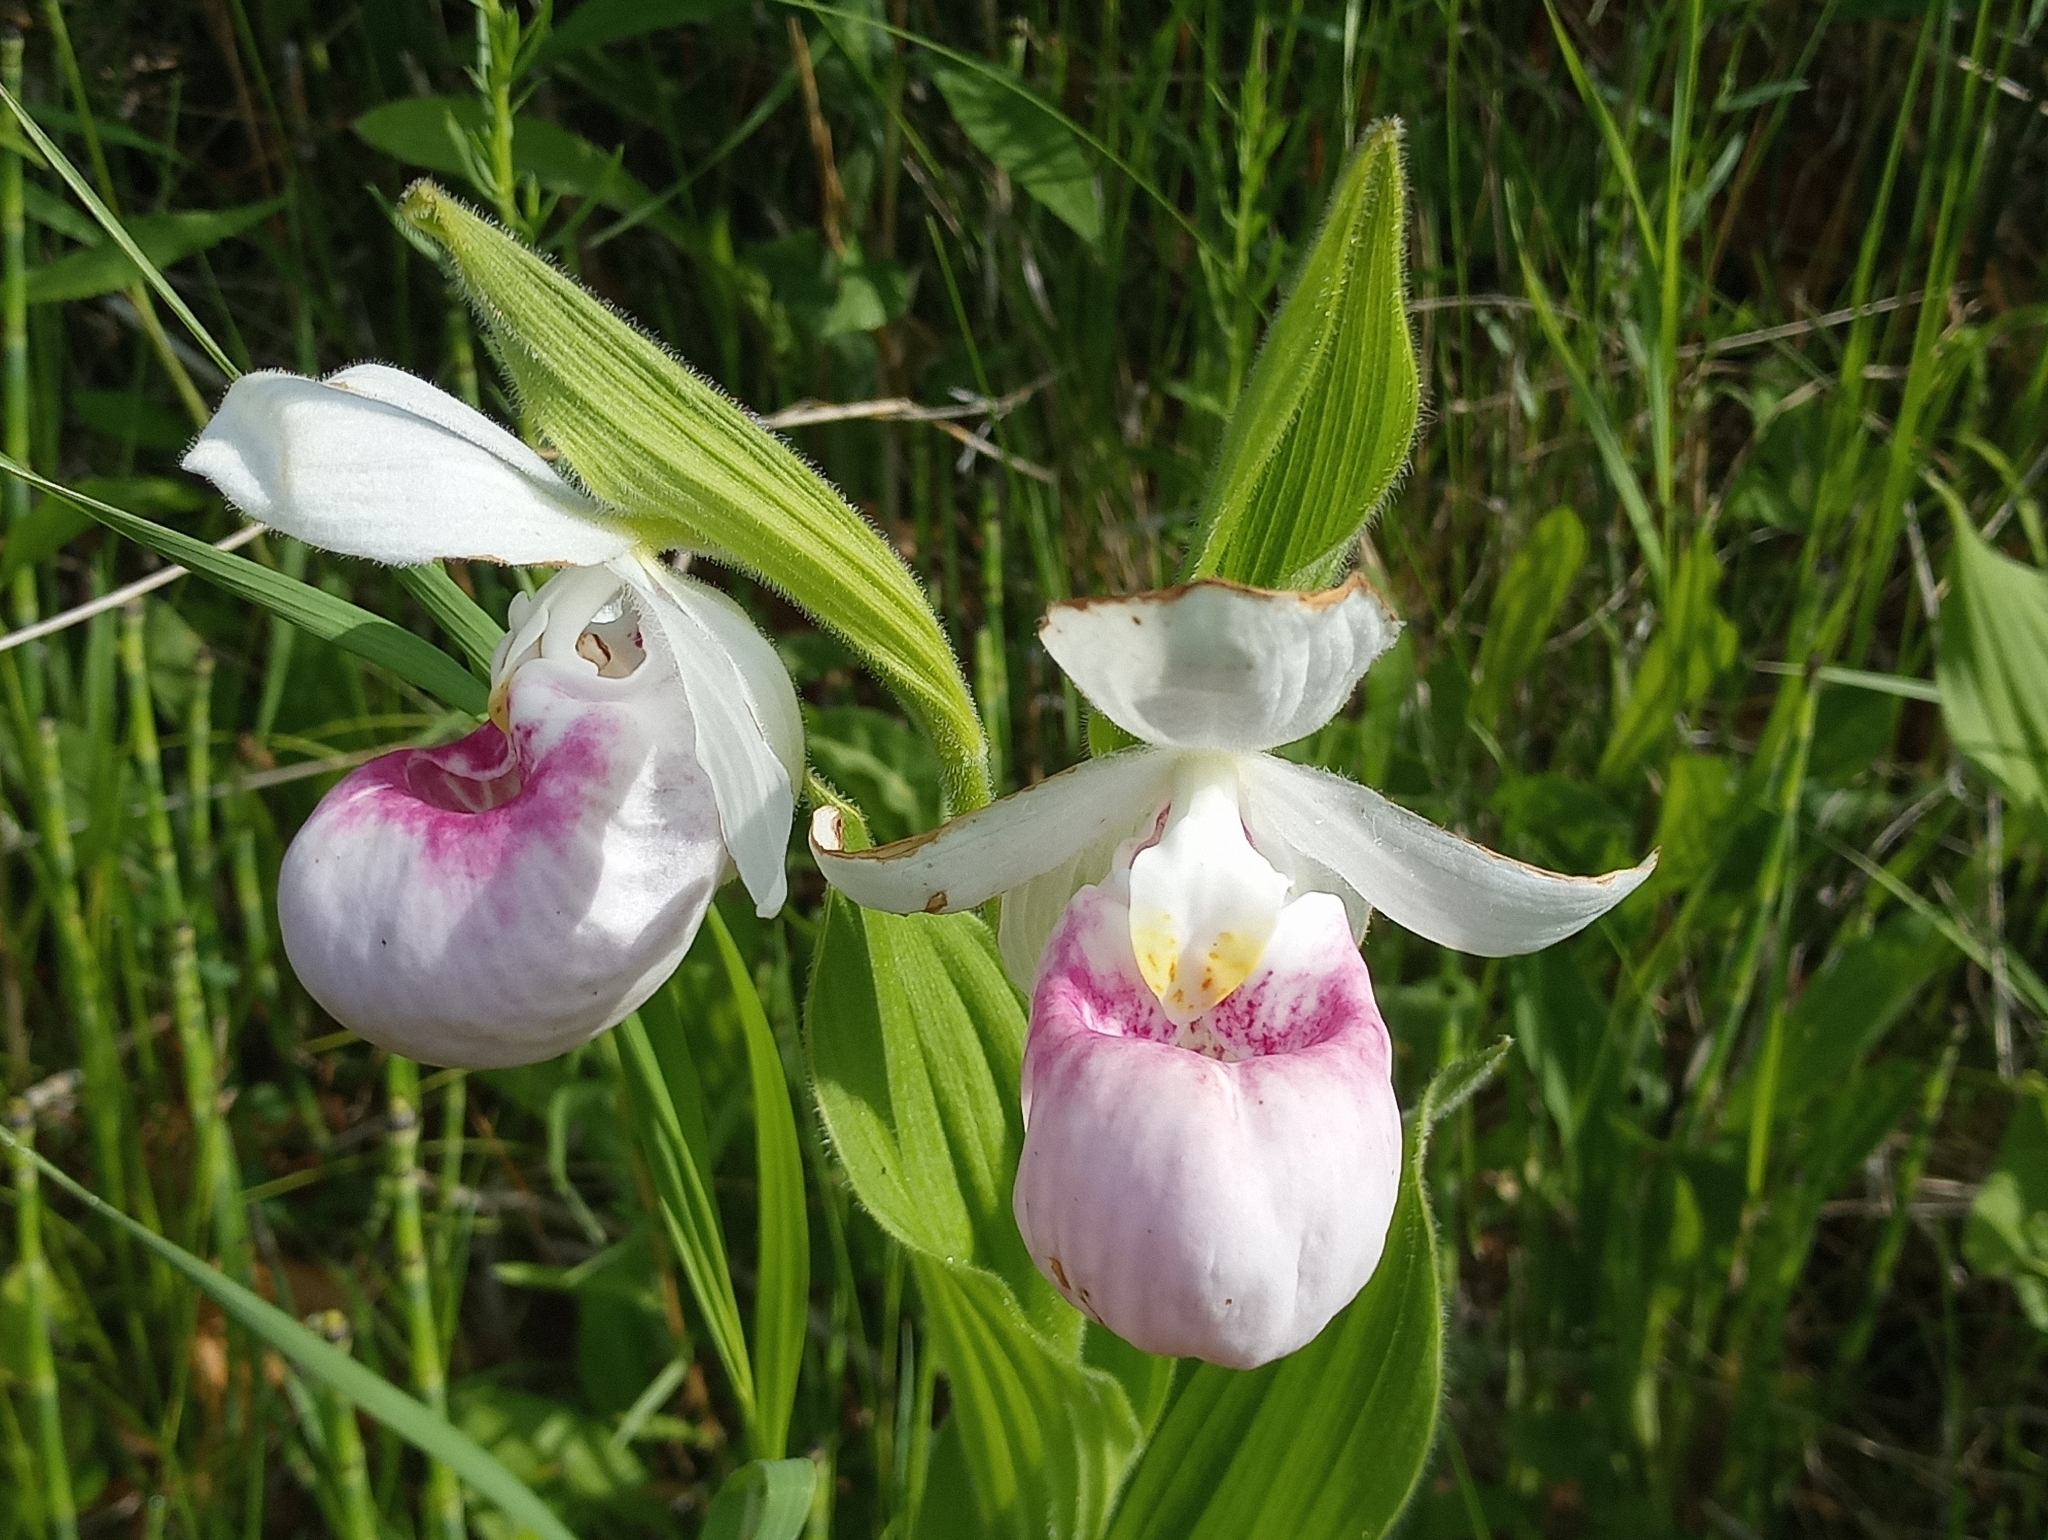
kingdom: Plantae
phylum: Tracheophyta
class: Liliopsida
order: Asparagales
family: Orchidaceae
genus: Cypripedium
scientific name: Cypripedium reginae
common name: Queen lady's-slipper
